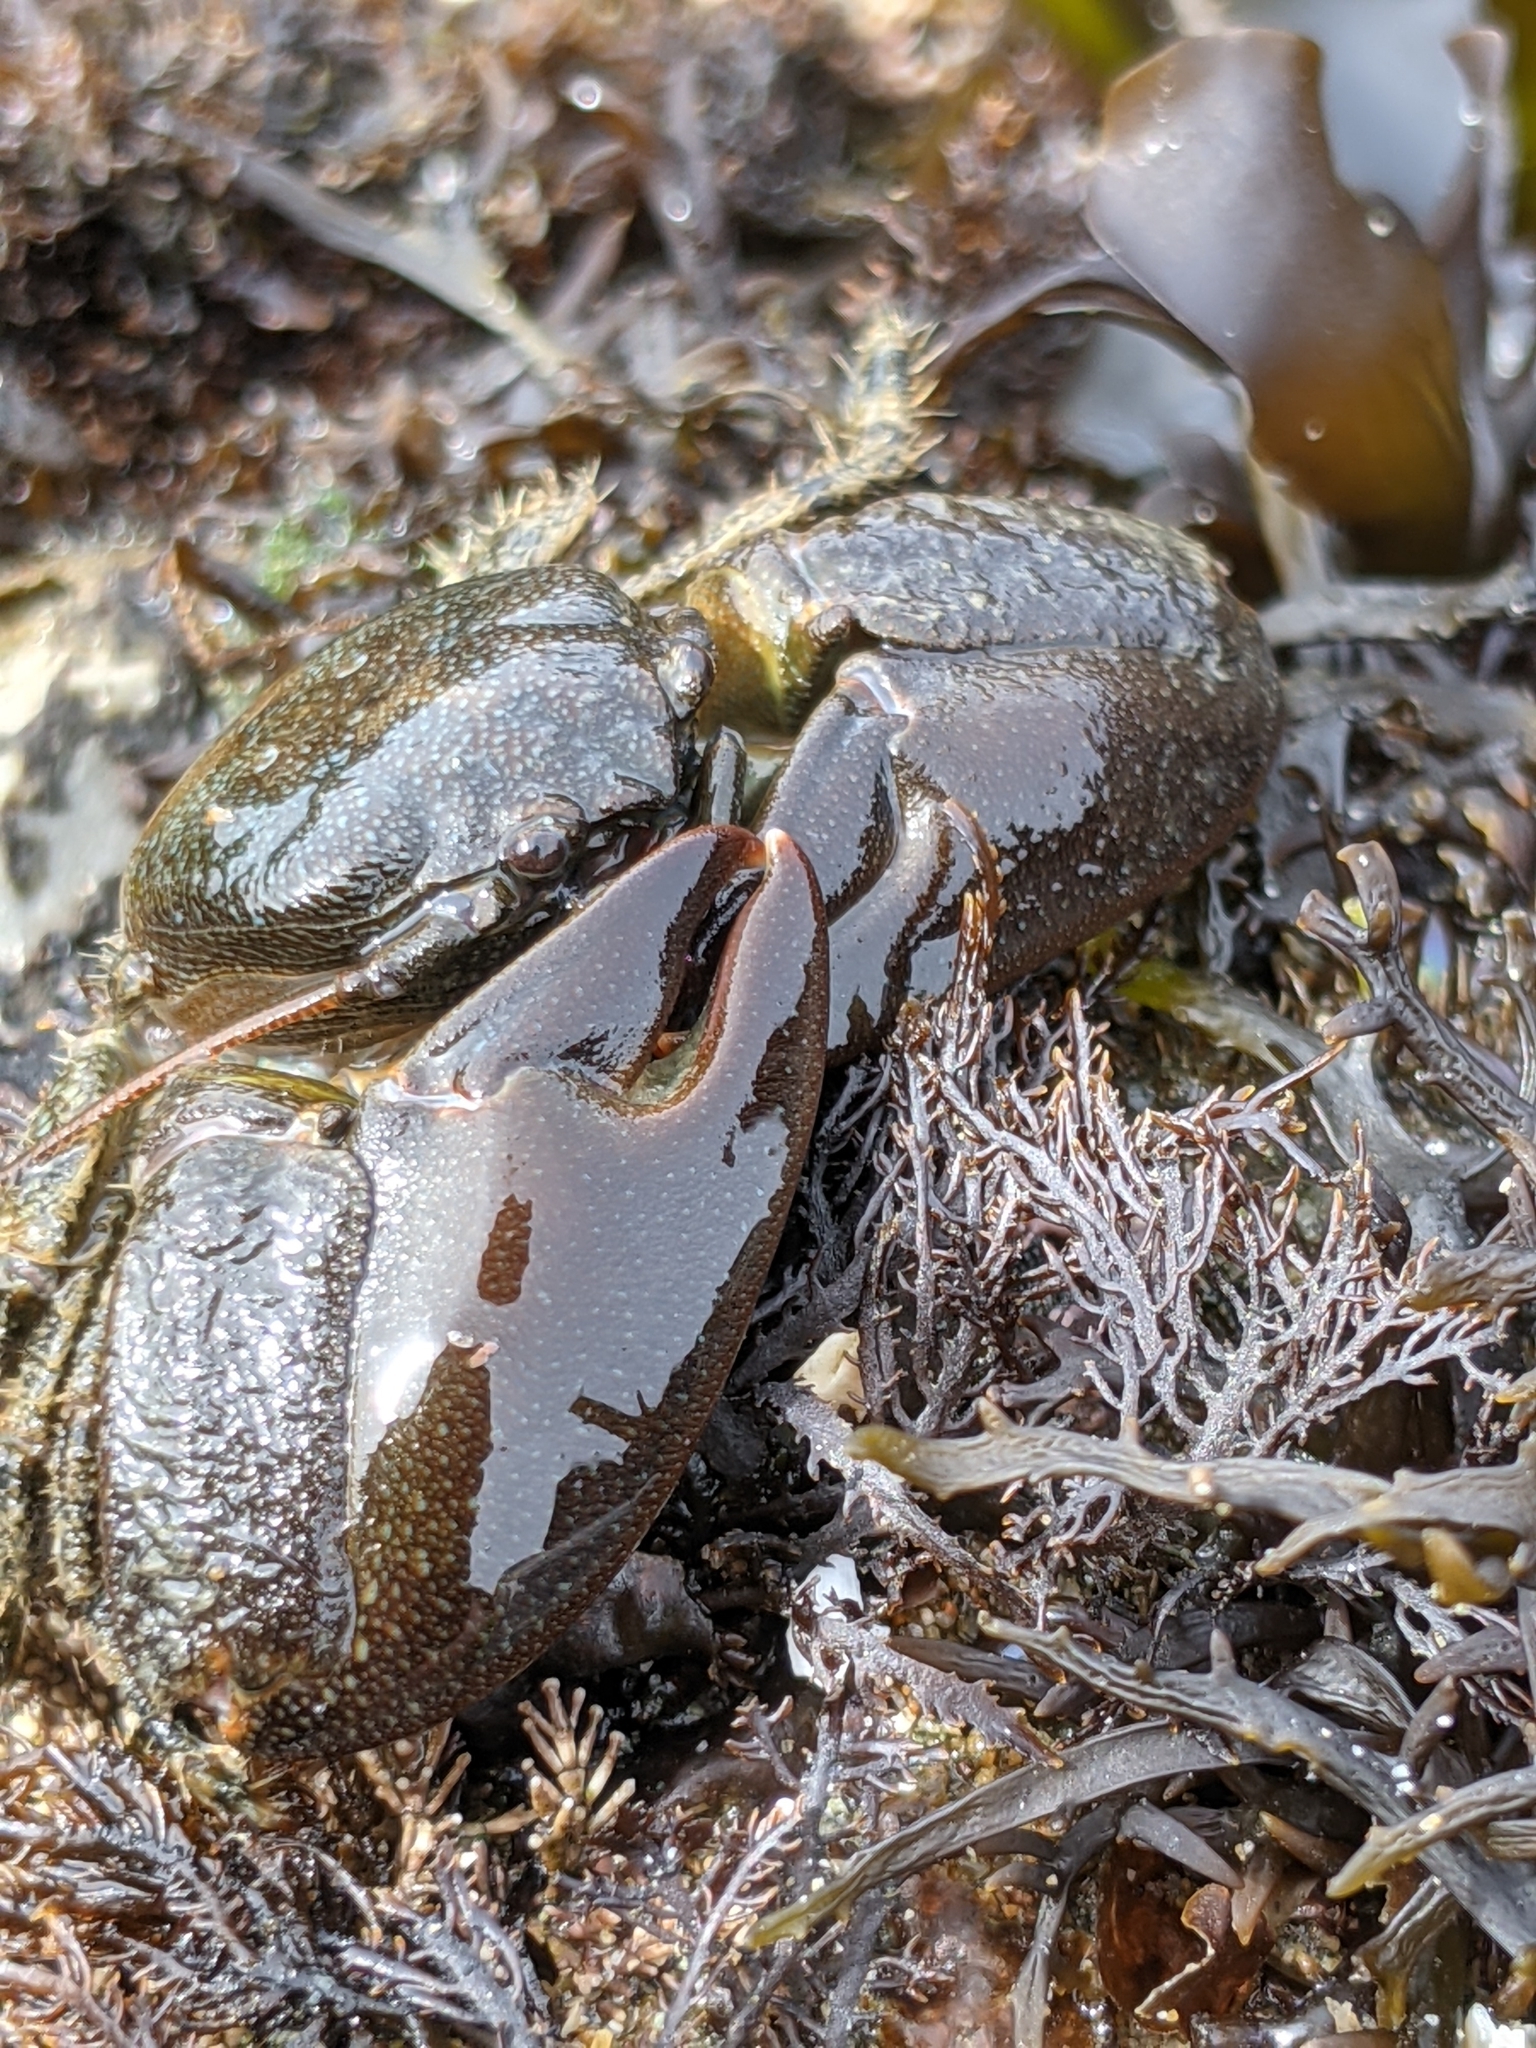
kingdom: Animalia
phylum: Arthropoda
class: Malacostraca
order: Decapoda
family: Porcellanidae
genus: Petrolisthes
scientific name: Petrolisthes cabrilloi
